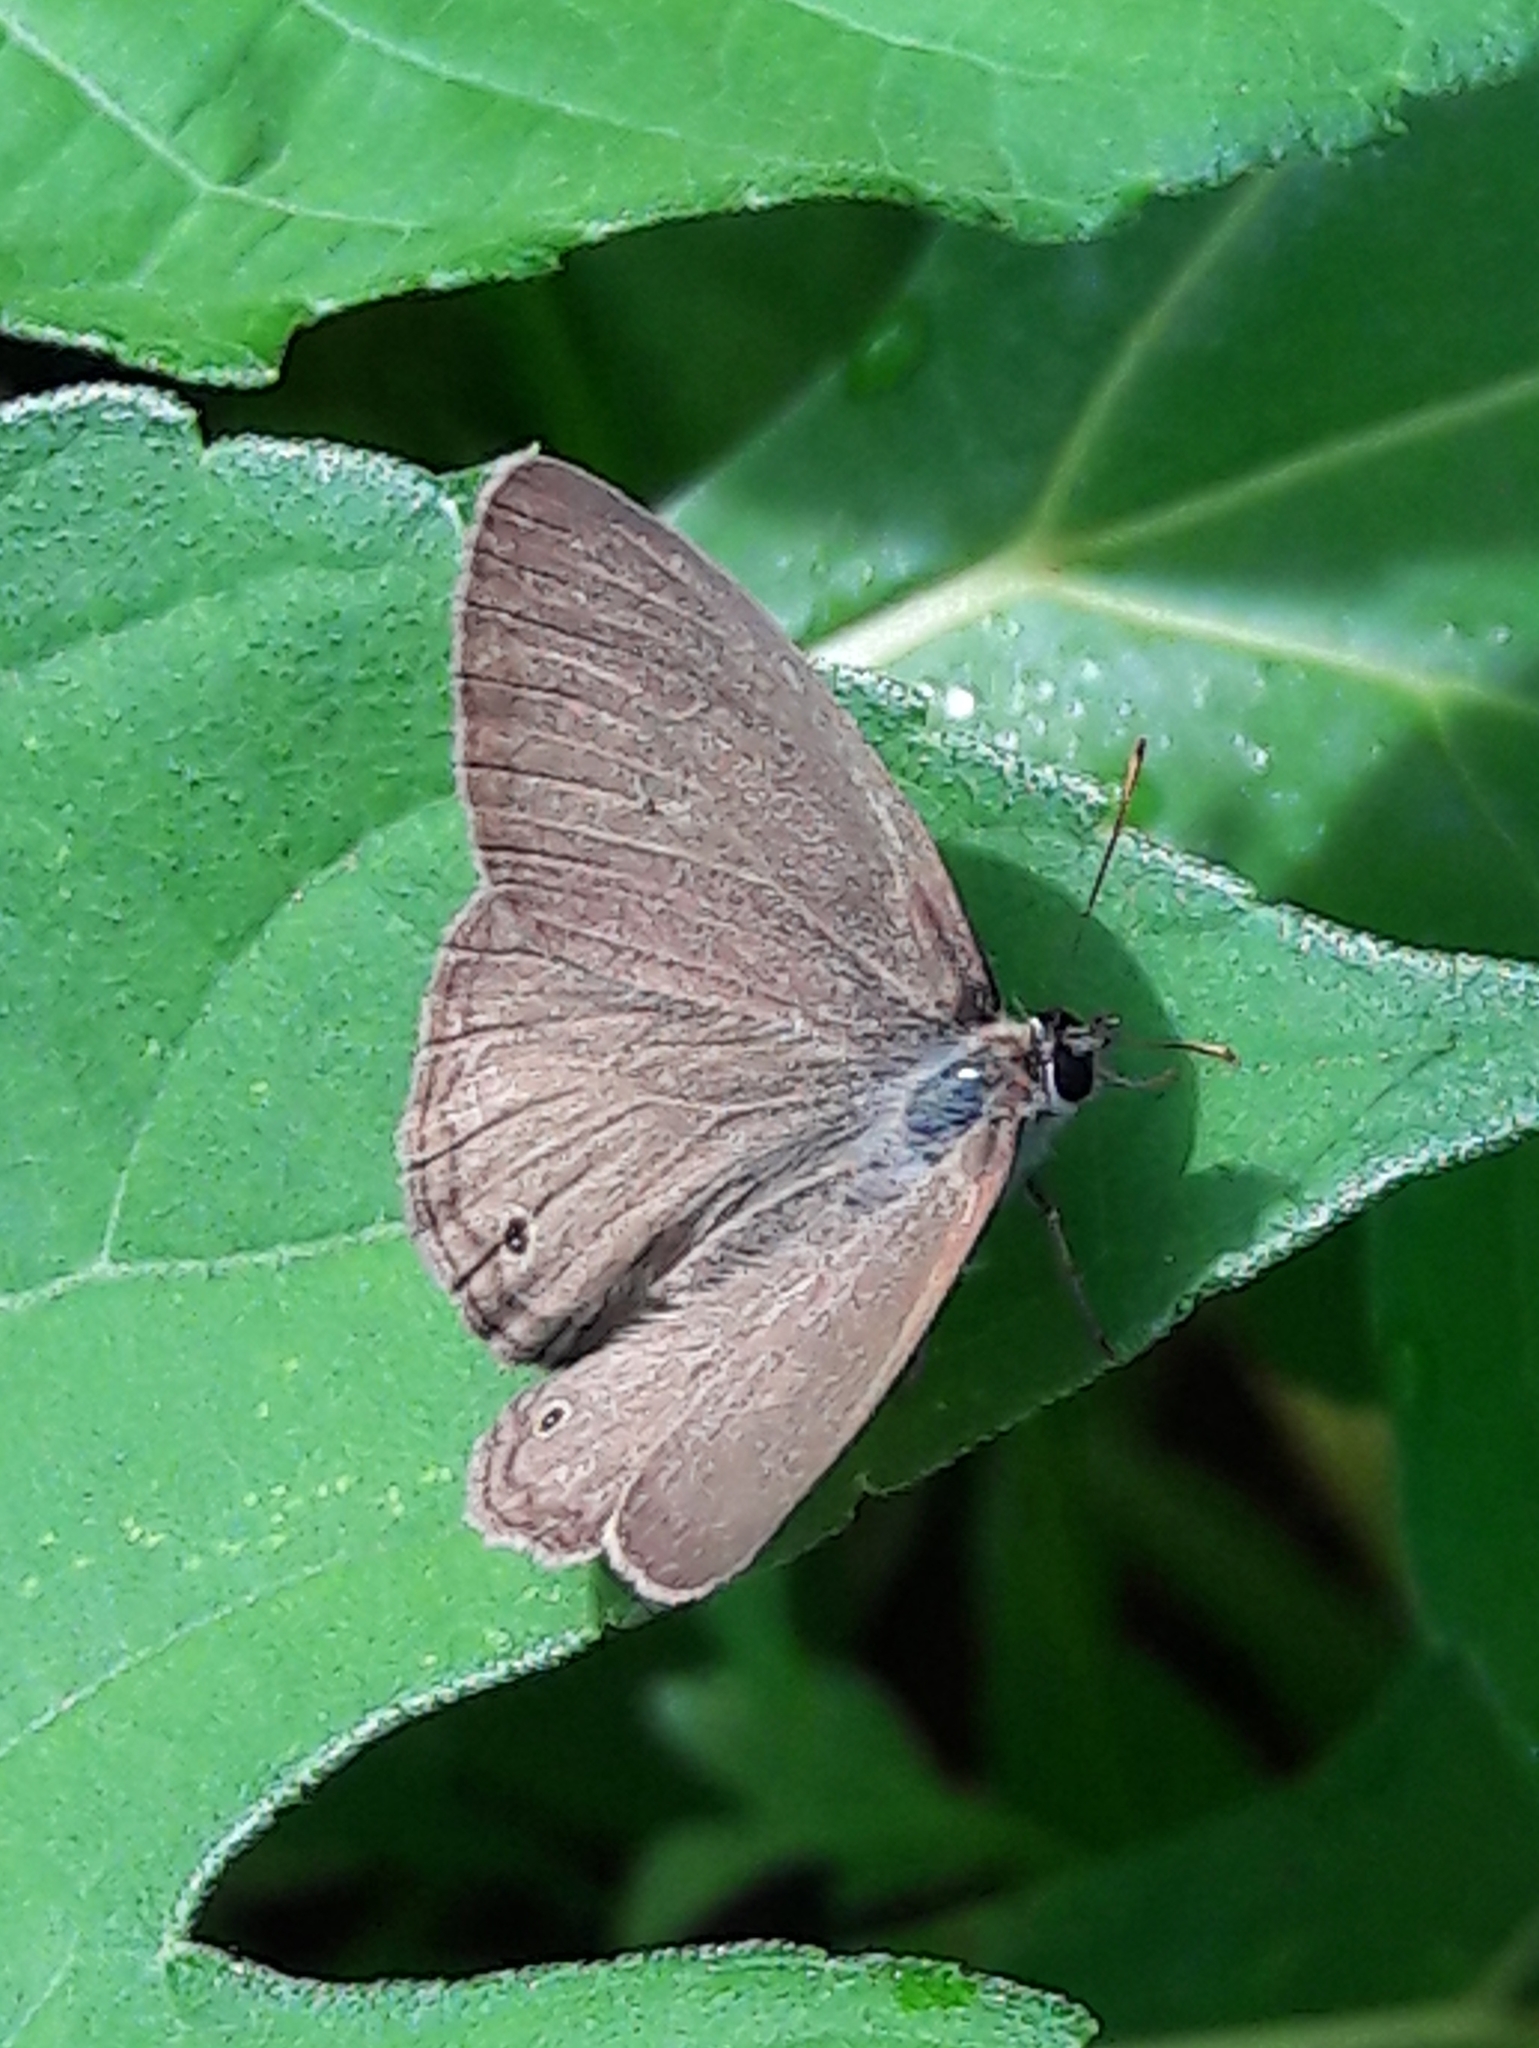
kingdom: Animalia
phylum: Arthropoda
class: Insecta
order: Lepidoptera
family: Nymphalidae
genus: Euptychia
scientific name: Euptychia Cissia eous
